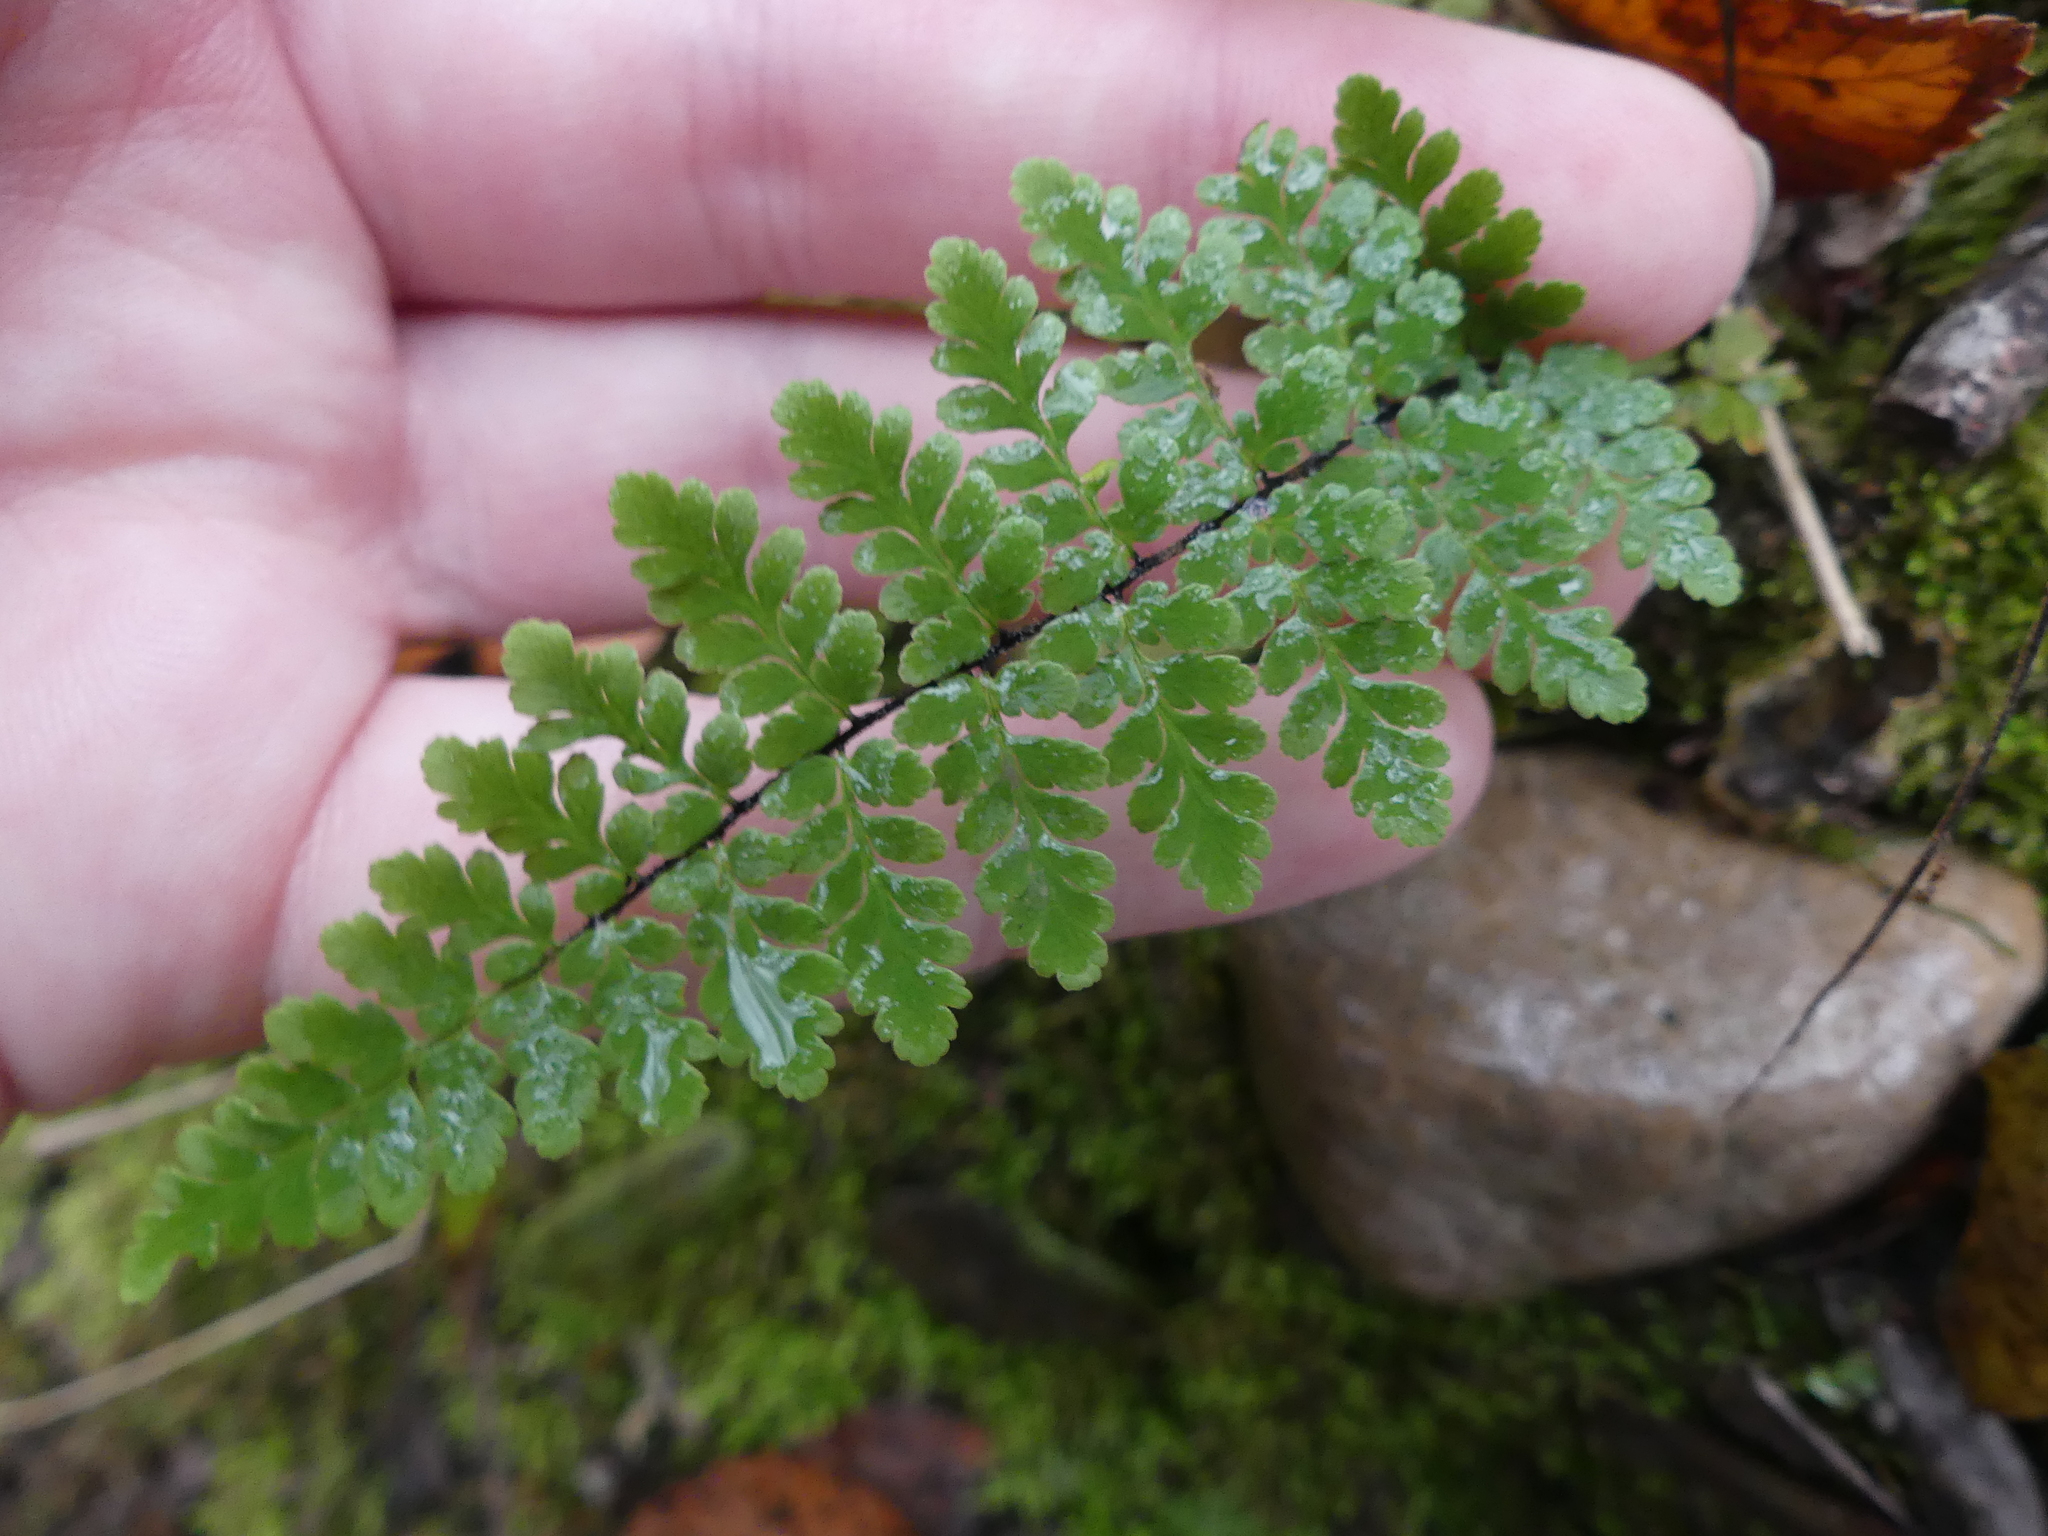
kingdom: Plantae
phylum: Tracheophyta
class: Polypodiopsida
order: Polypodiales
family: Pteridaceae
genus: Myriopteris
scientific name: Myriopteris alabamensis
